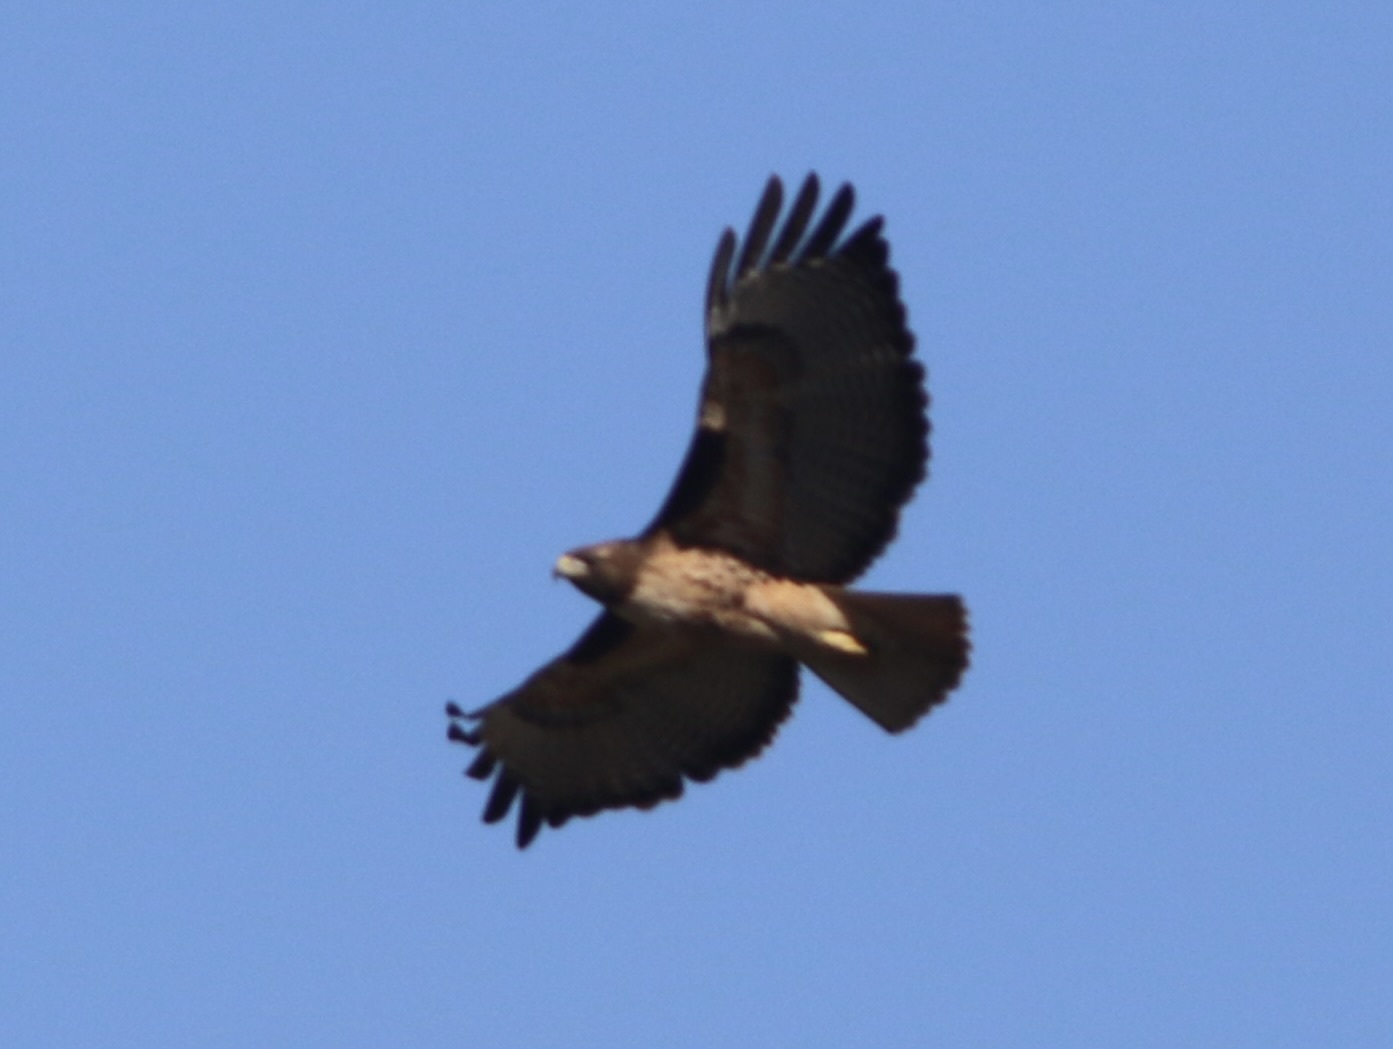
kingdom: Animalia
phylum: Chordata
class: Aves
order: Accipitriformes
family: Accipitridae
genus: Buteo
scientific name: Buteo jamaicensis
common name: Red-tailed hawk
